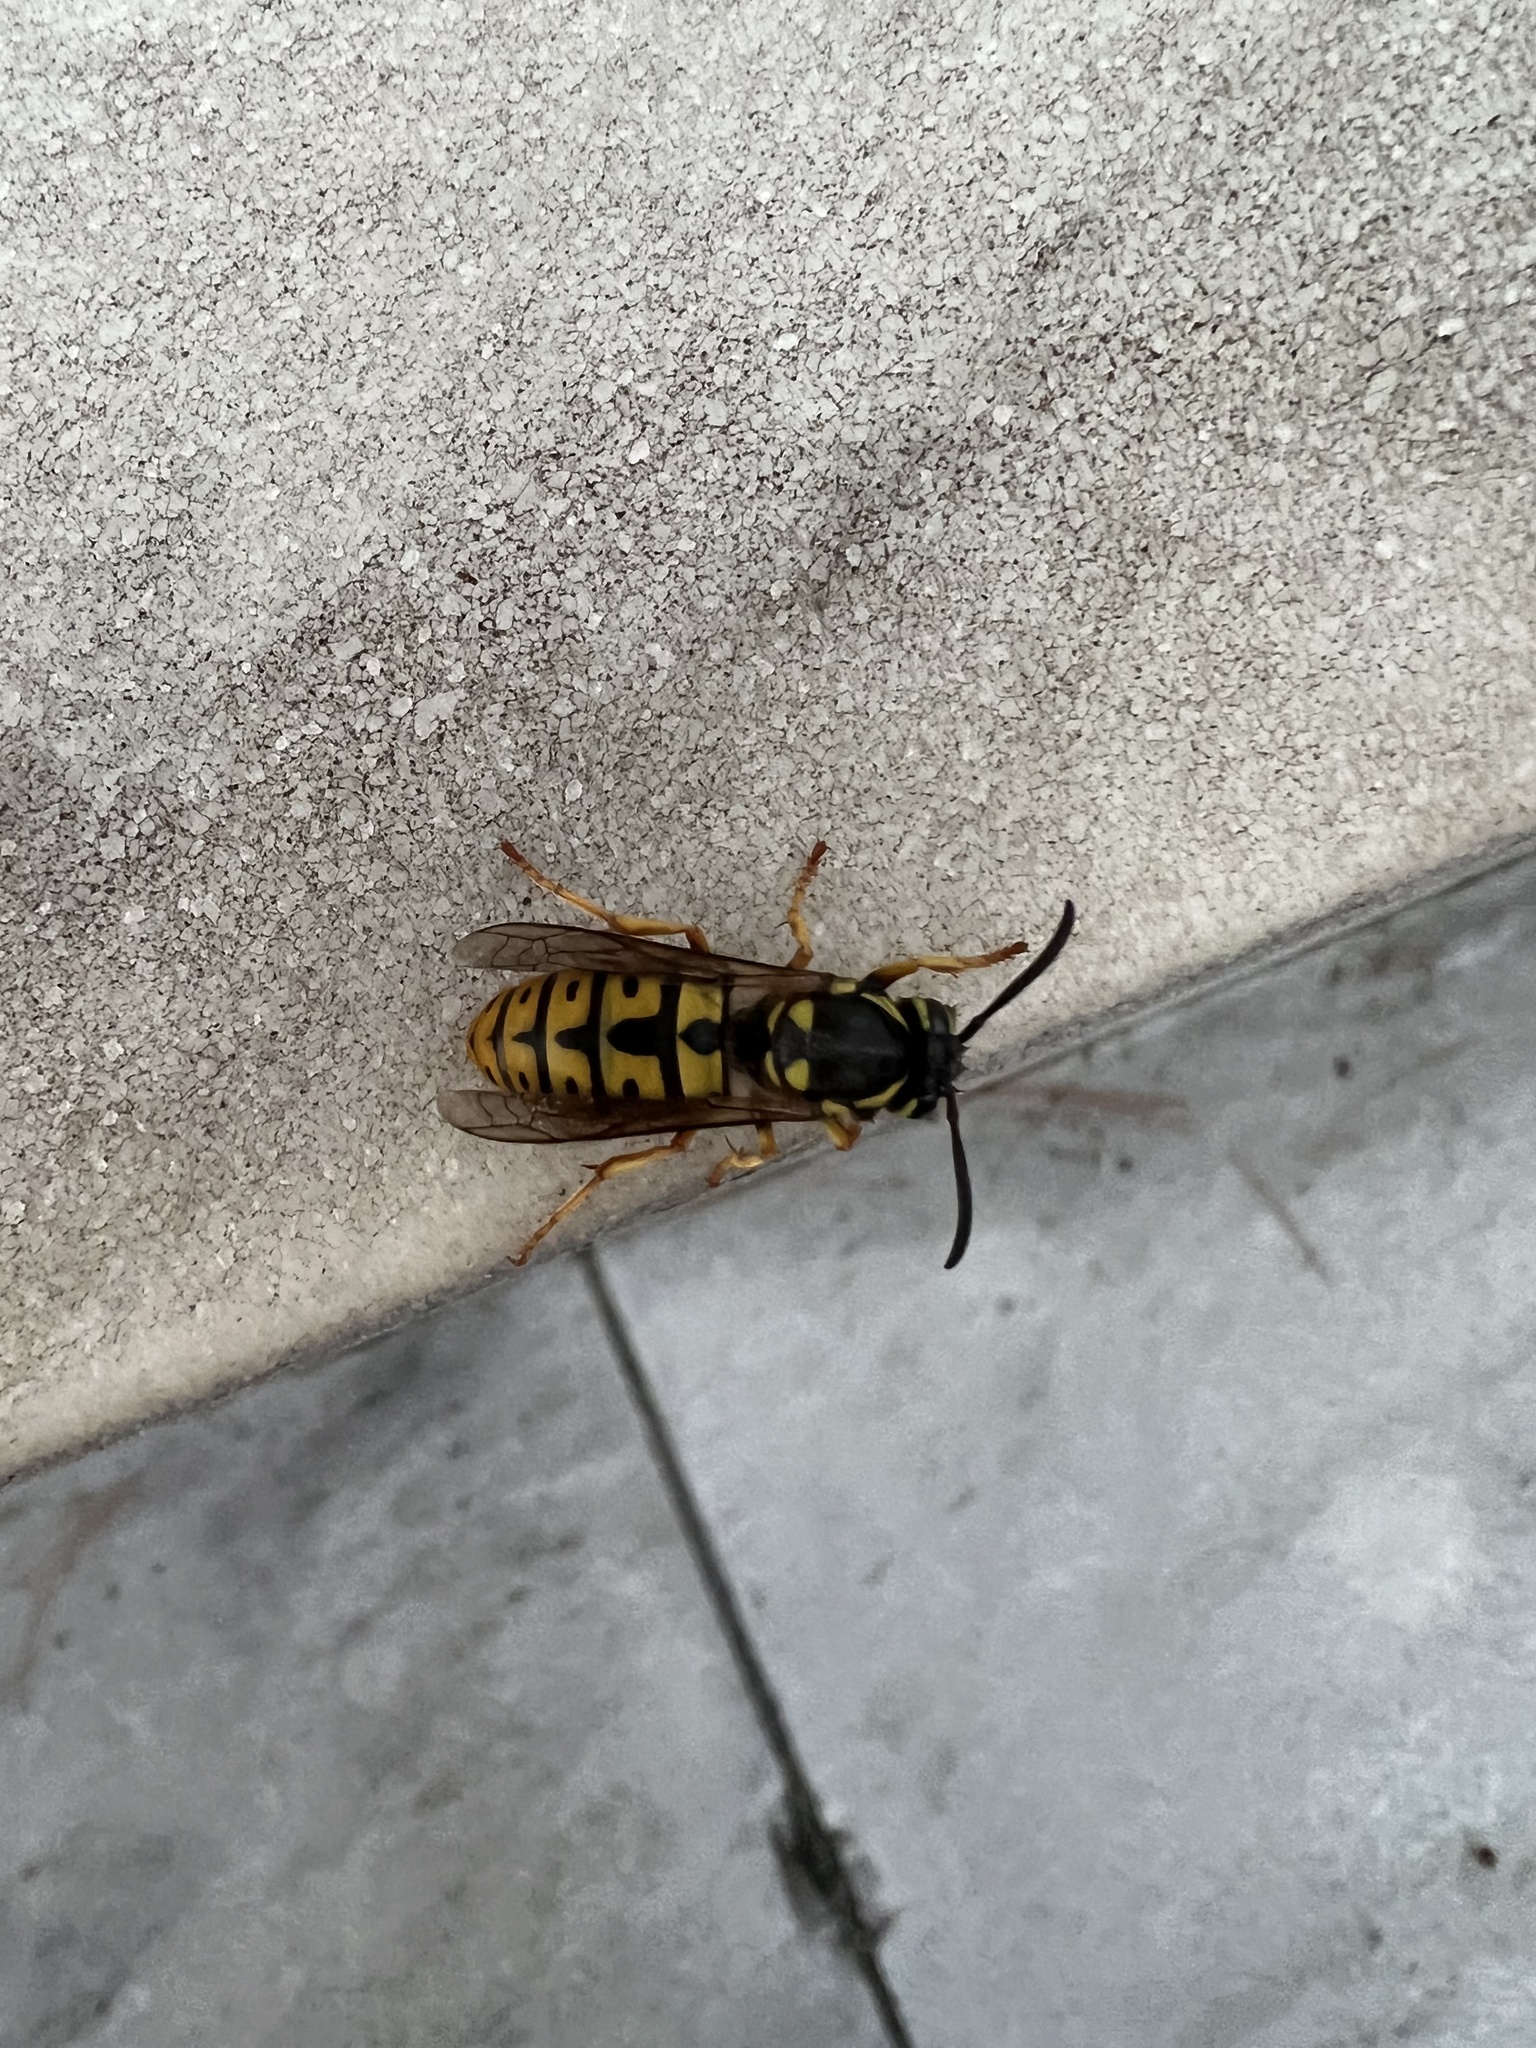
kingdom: Animalia
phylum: Arthropoda
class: Insecta
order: Hymenoptera
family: Vespidae
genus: Vespula
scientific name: Vespula germanica
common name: German wasp
